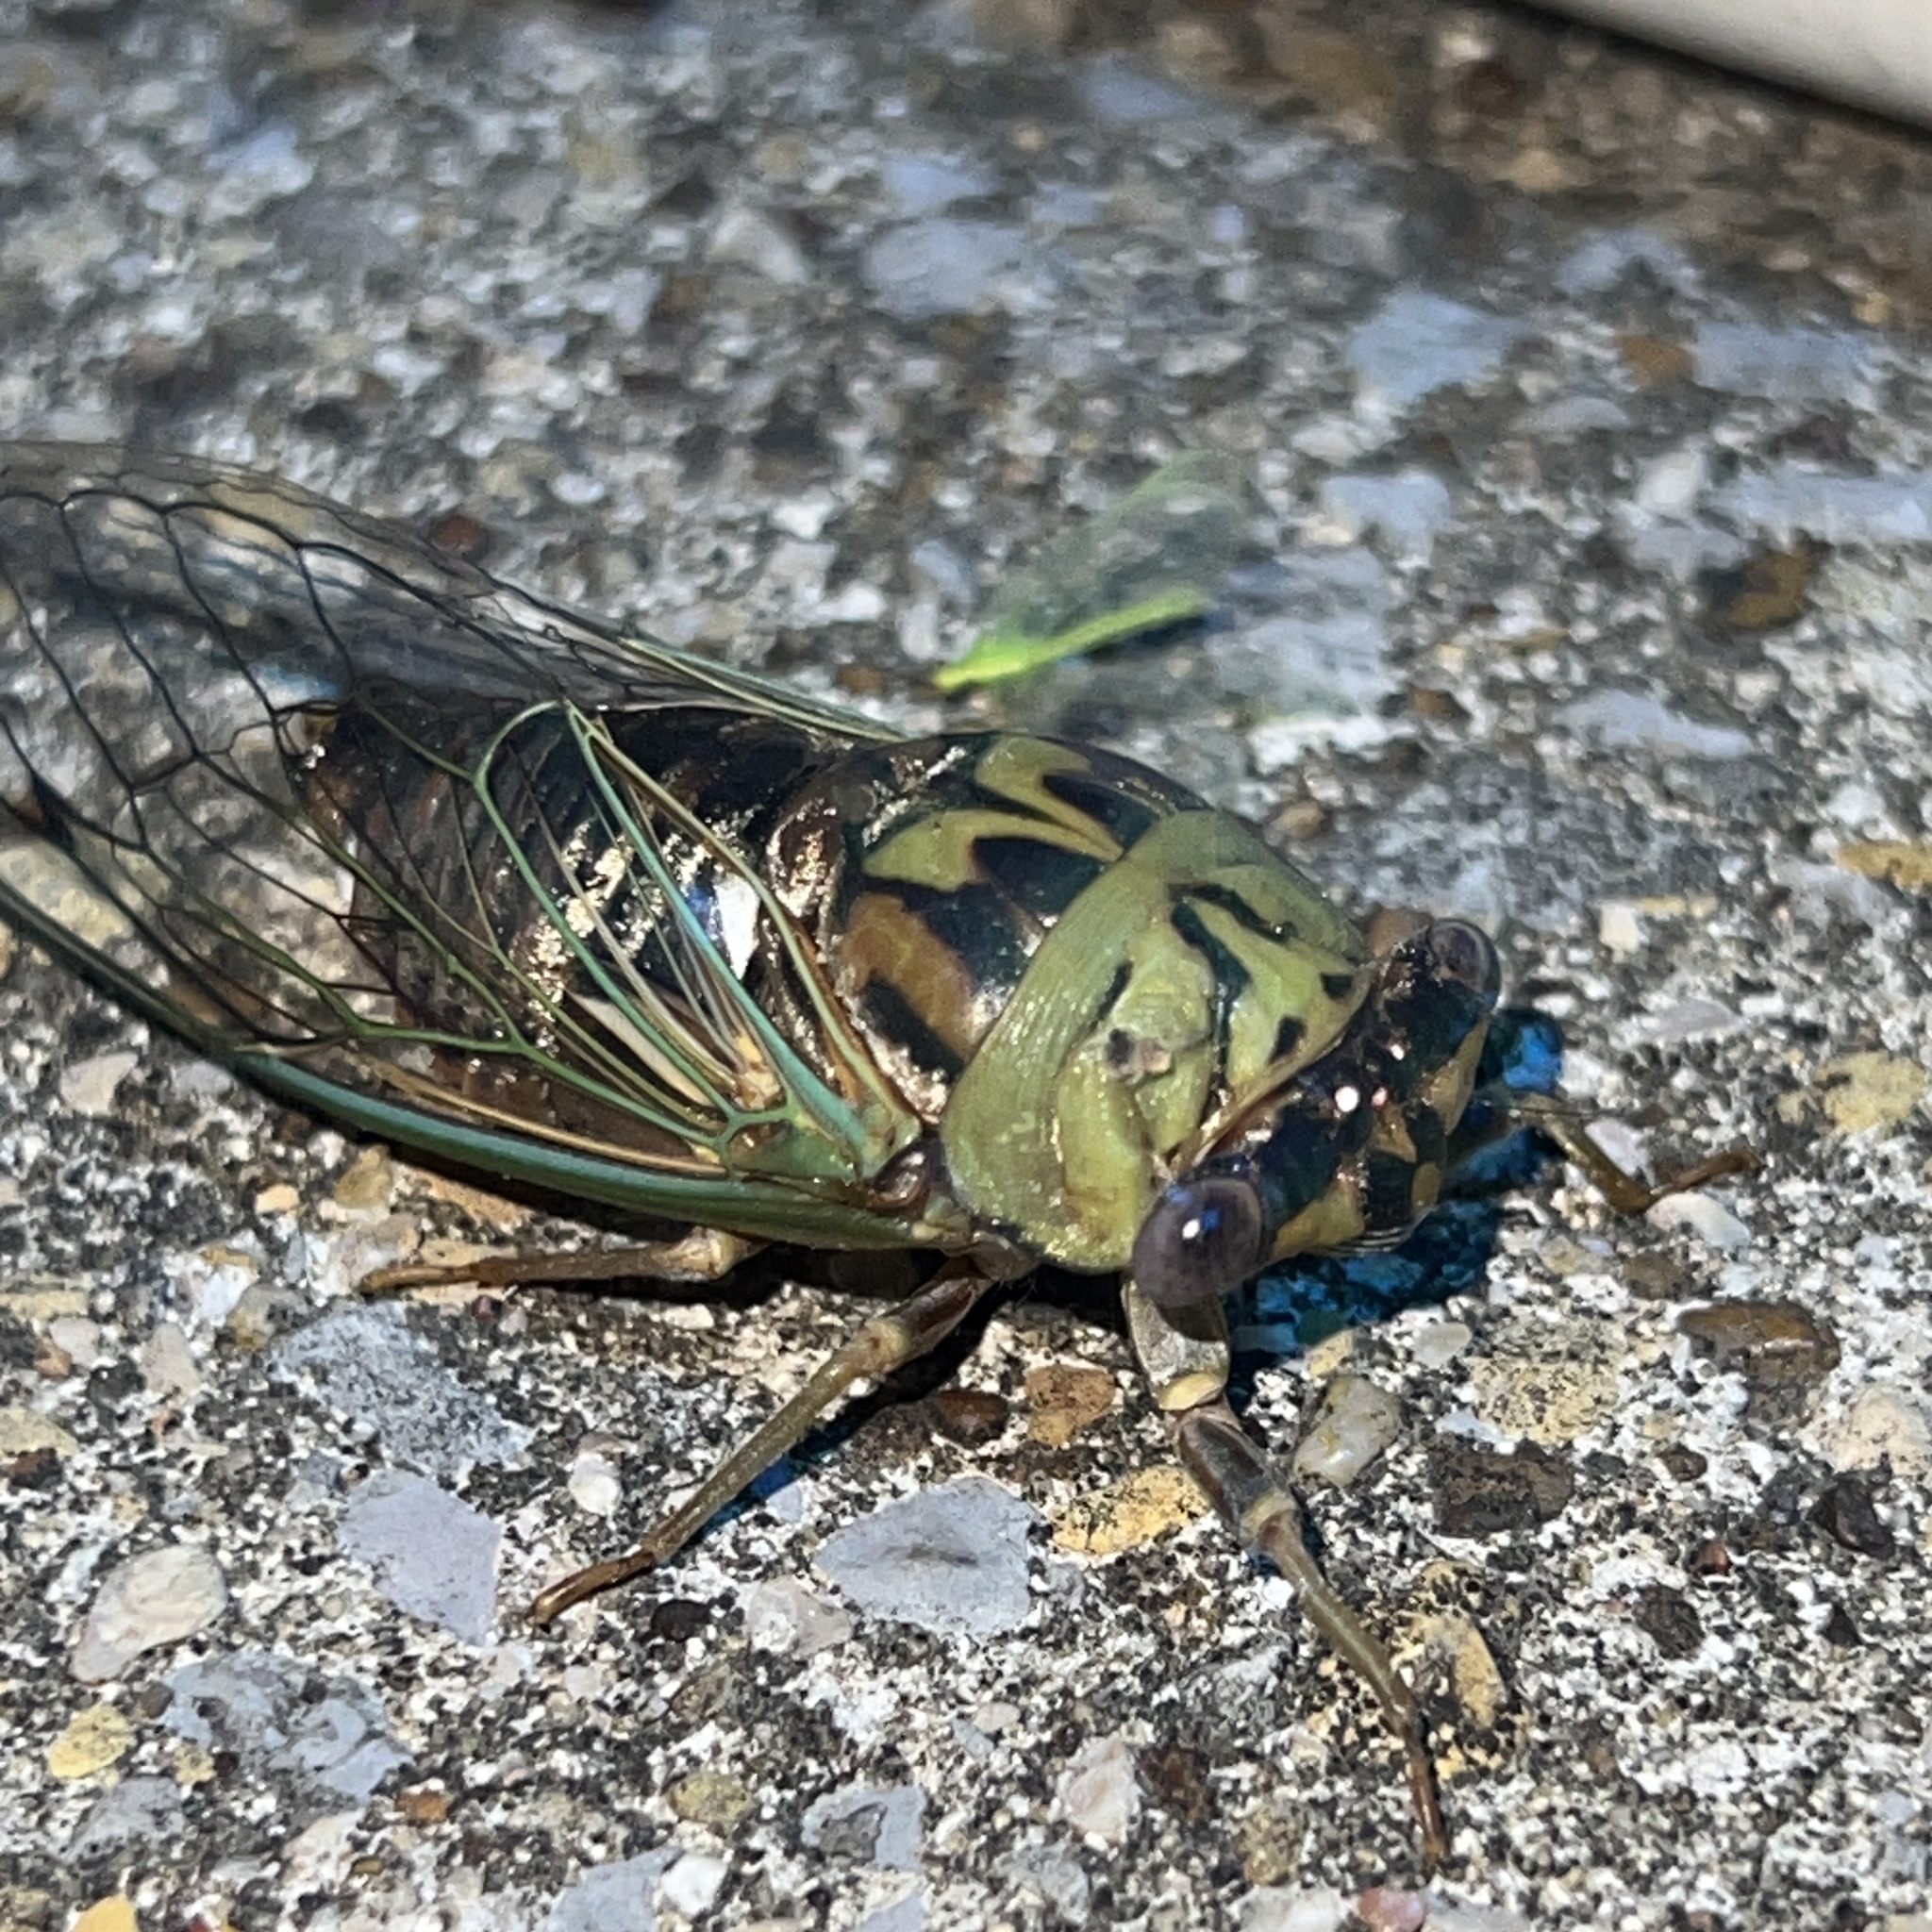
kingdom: Animalia
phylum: Arthropoda
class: Insecta
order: Hemiptera
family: Cicadidae
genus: Megatibicen
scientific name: Megatibicen resh
